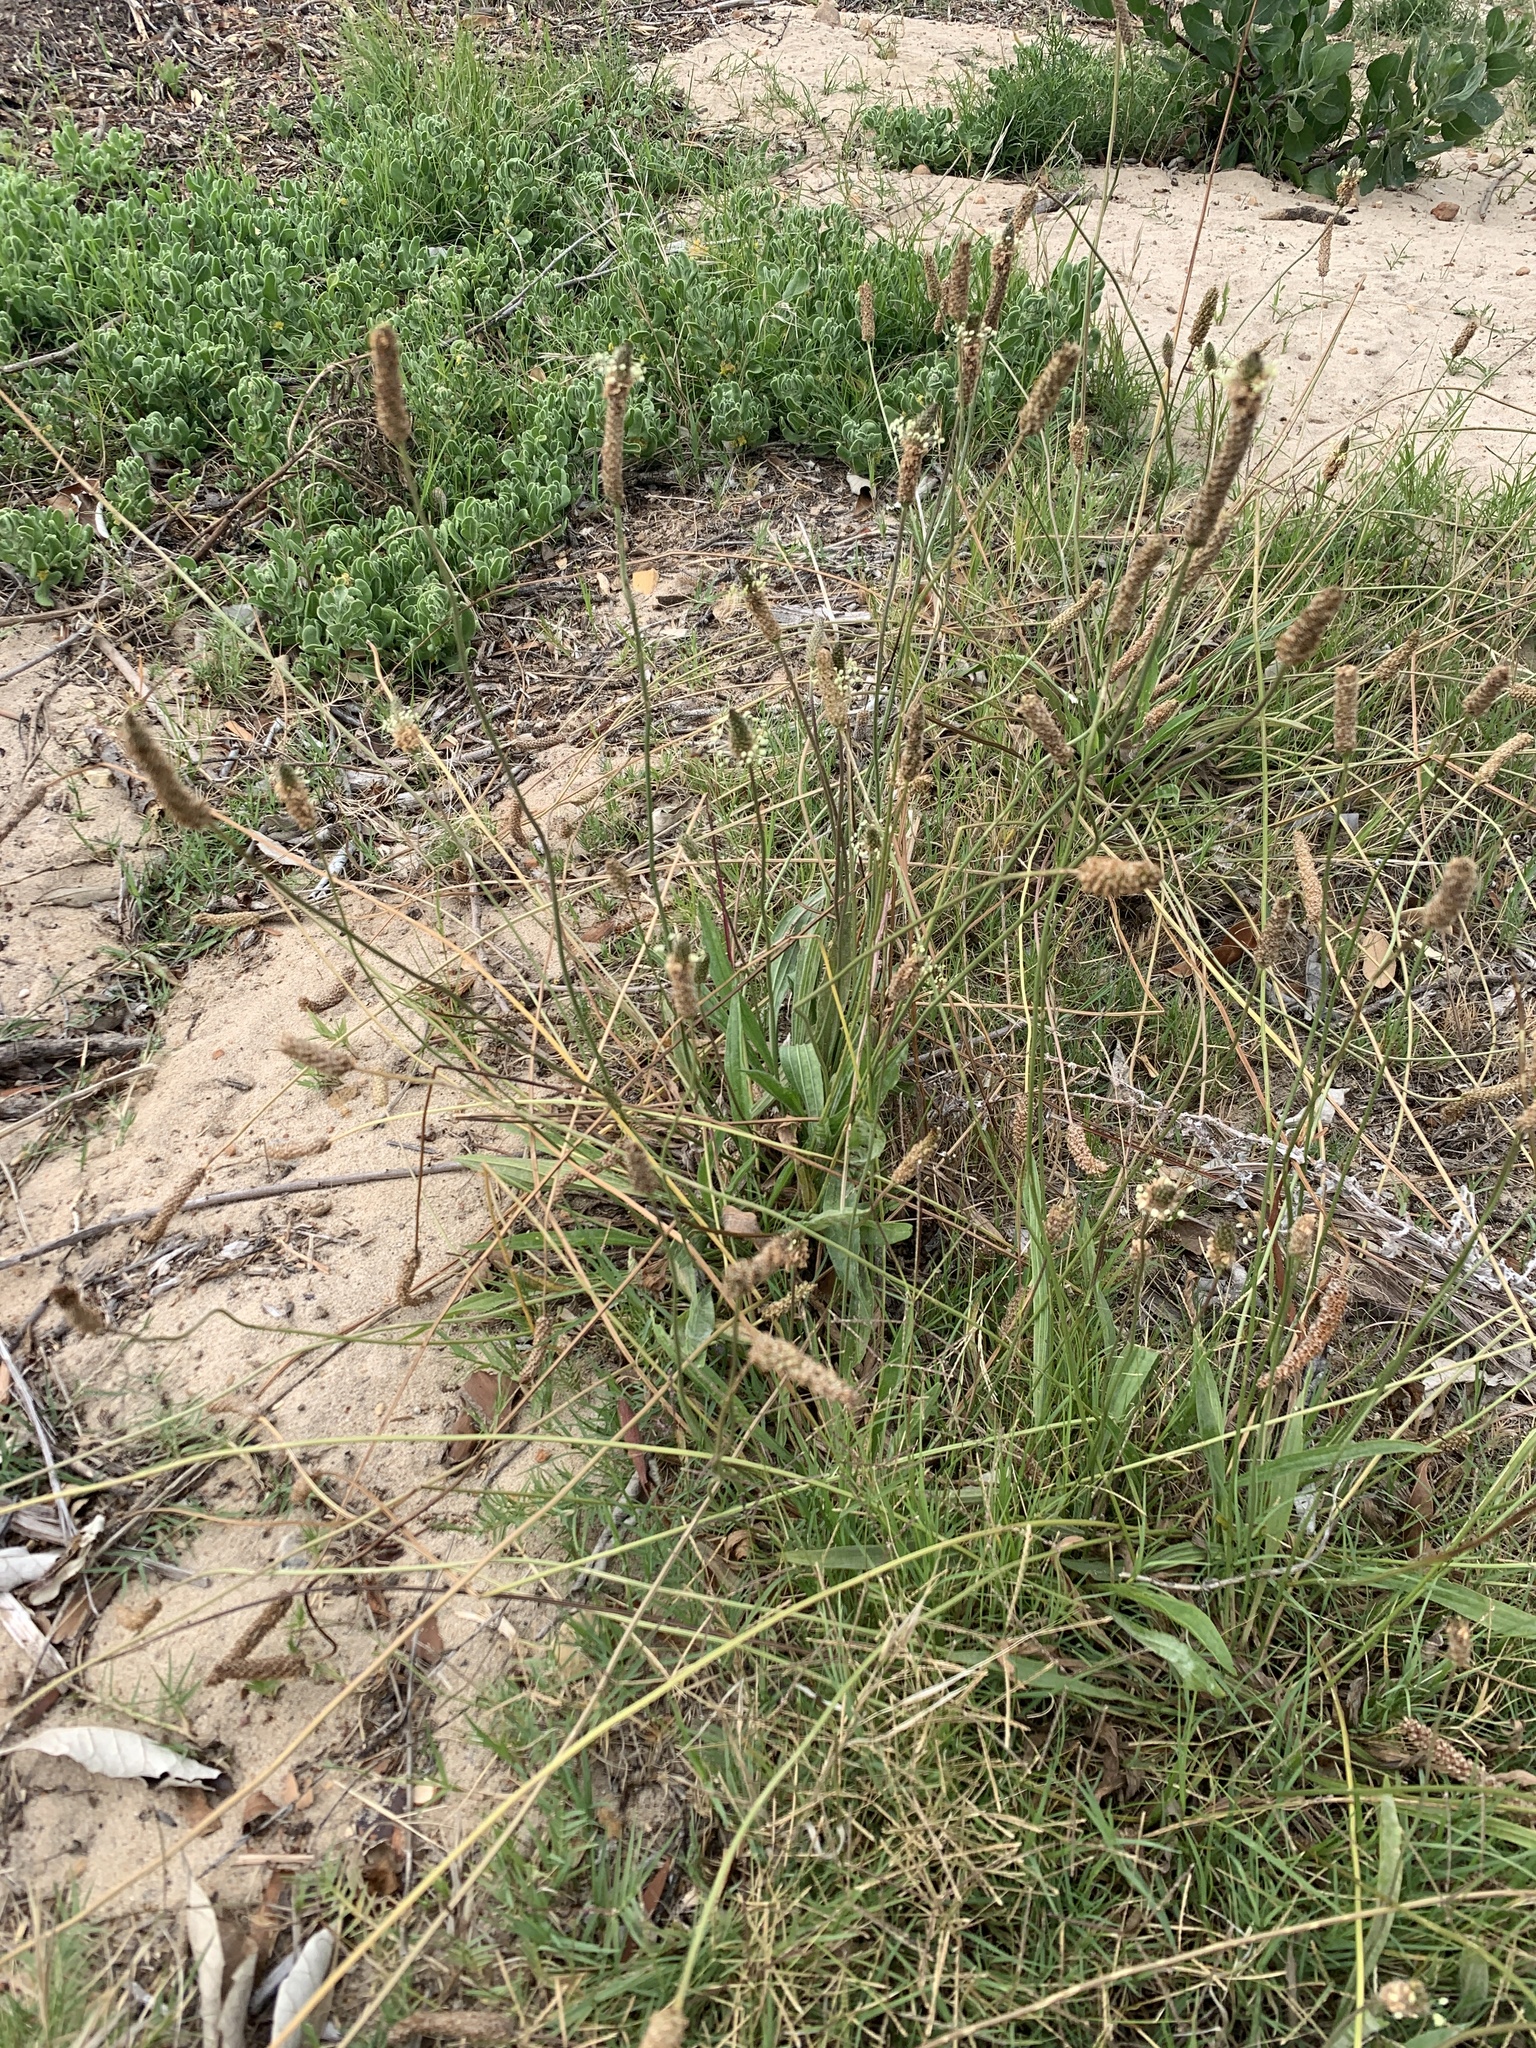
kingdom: Plantae
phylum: Tracheophyta
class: Magnoliopsida
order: Lamiales
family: Plantaginaceae
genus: Plantago
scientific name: Plantago lanceolata
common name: Ribwort plantain
